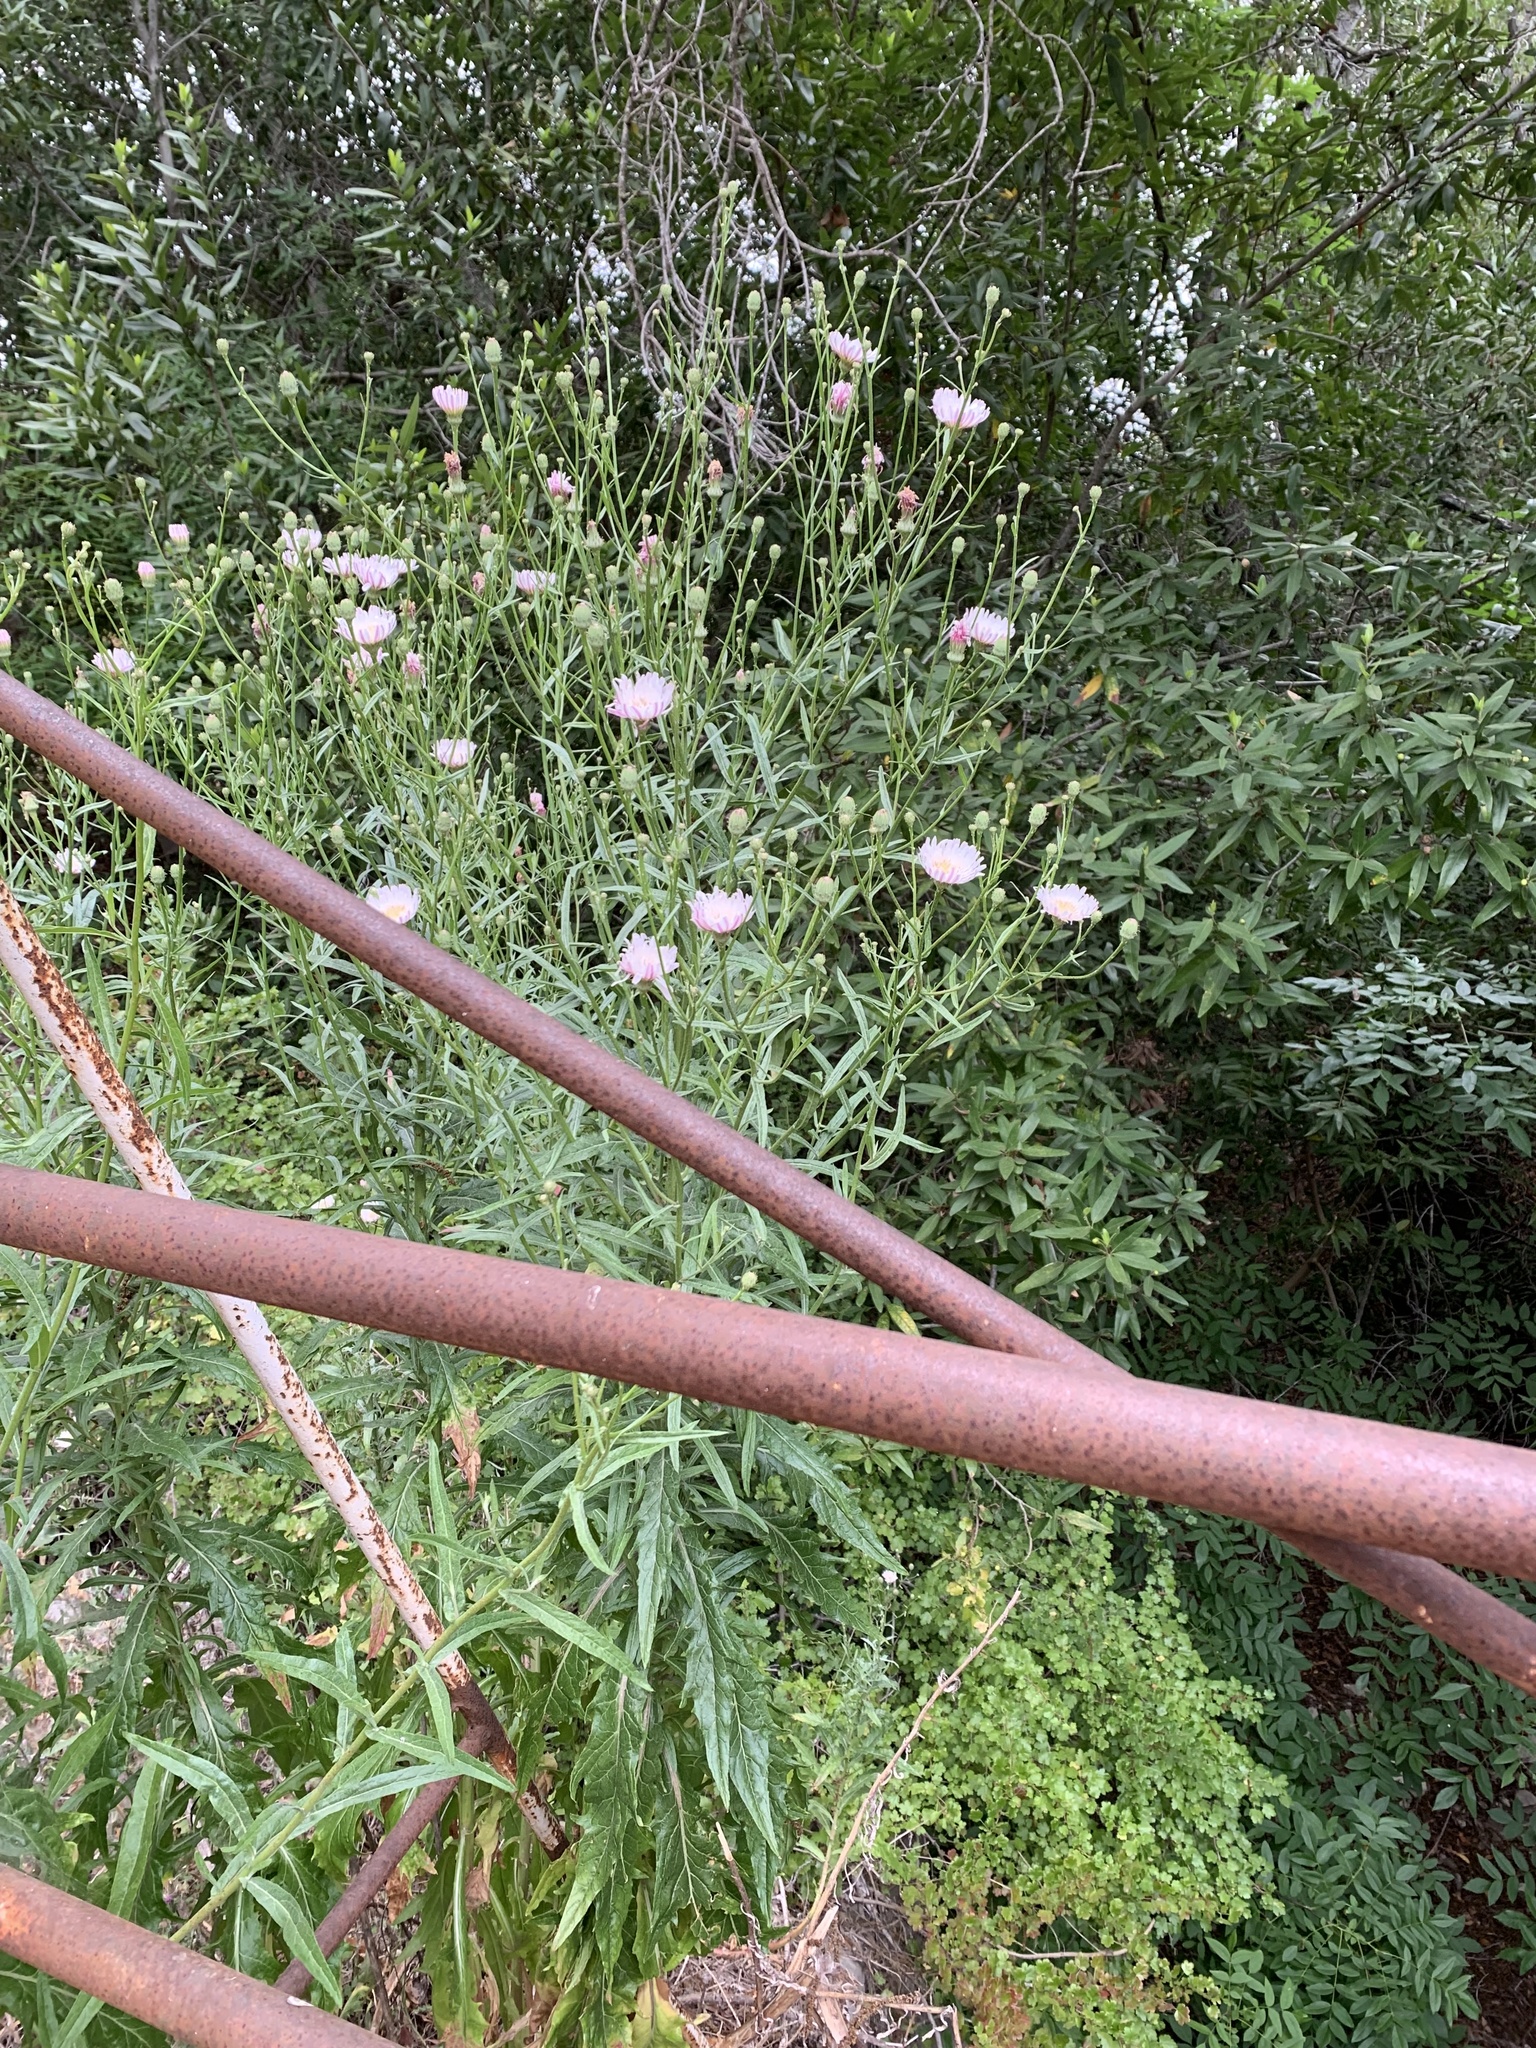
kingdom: Plantae
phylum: Tracheophyta
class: Magnoliopsida
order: Asterales
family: Asteraceae
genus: Malacothrix
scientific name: Malacothrix saxatilis
